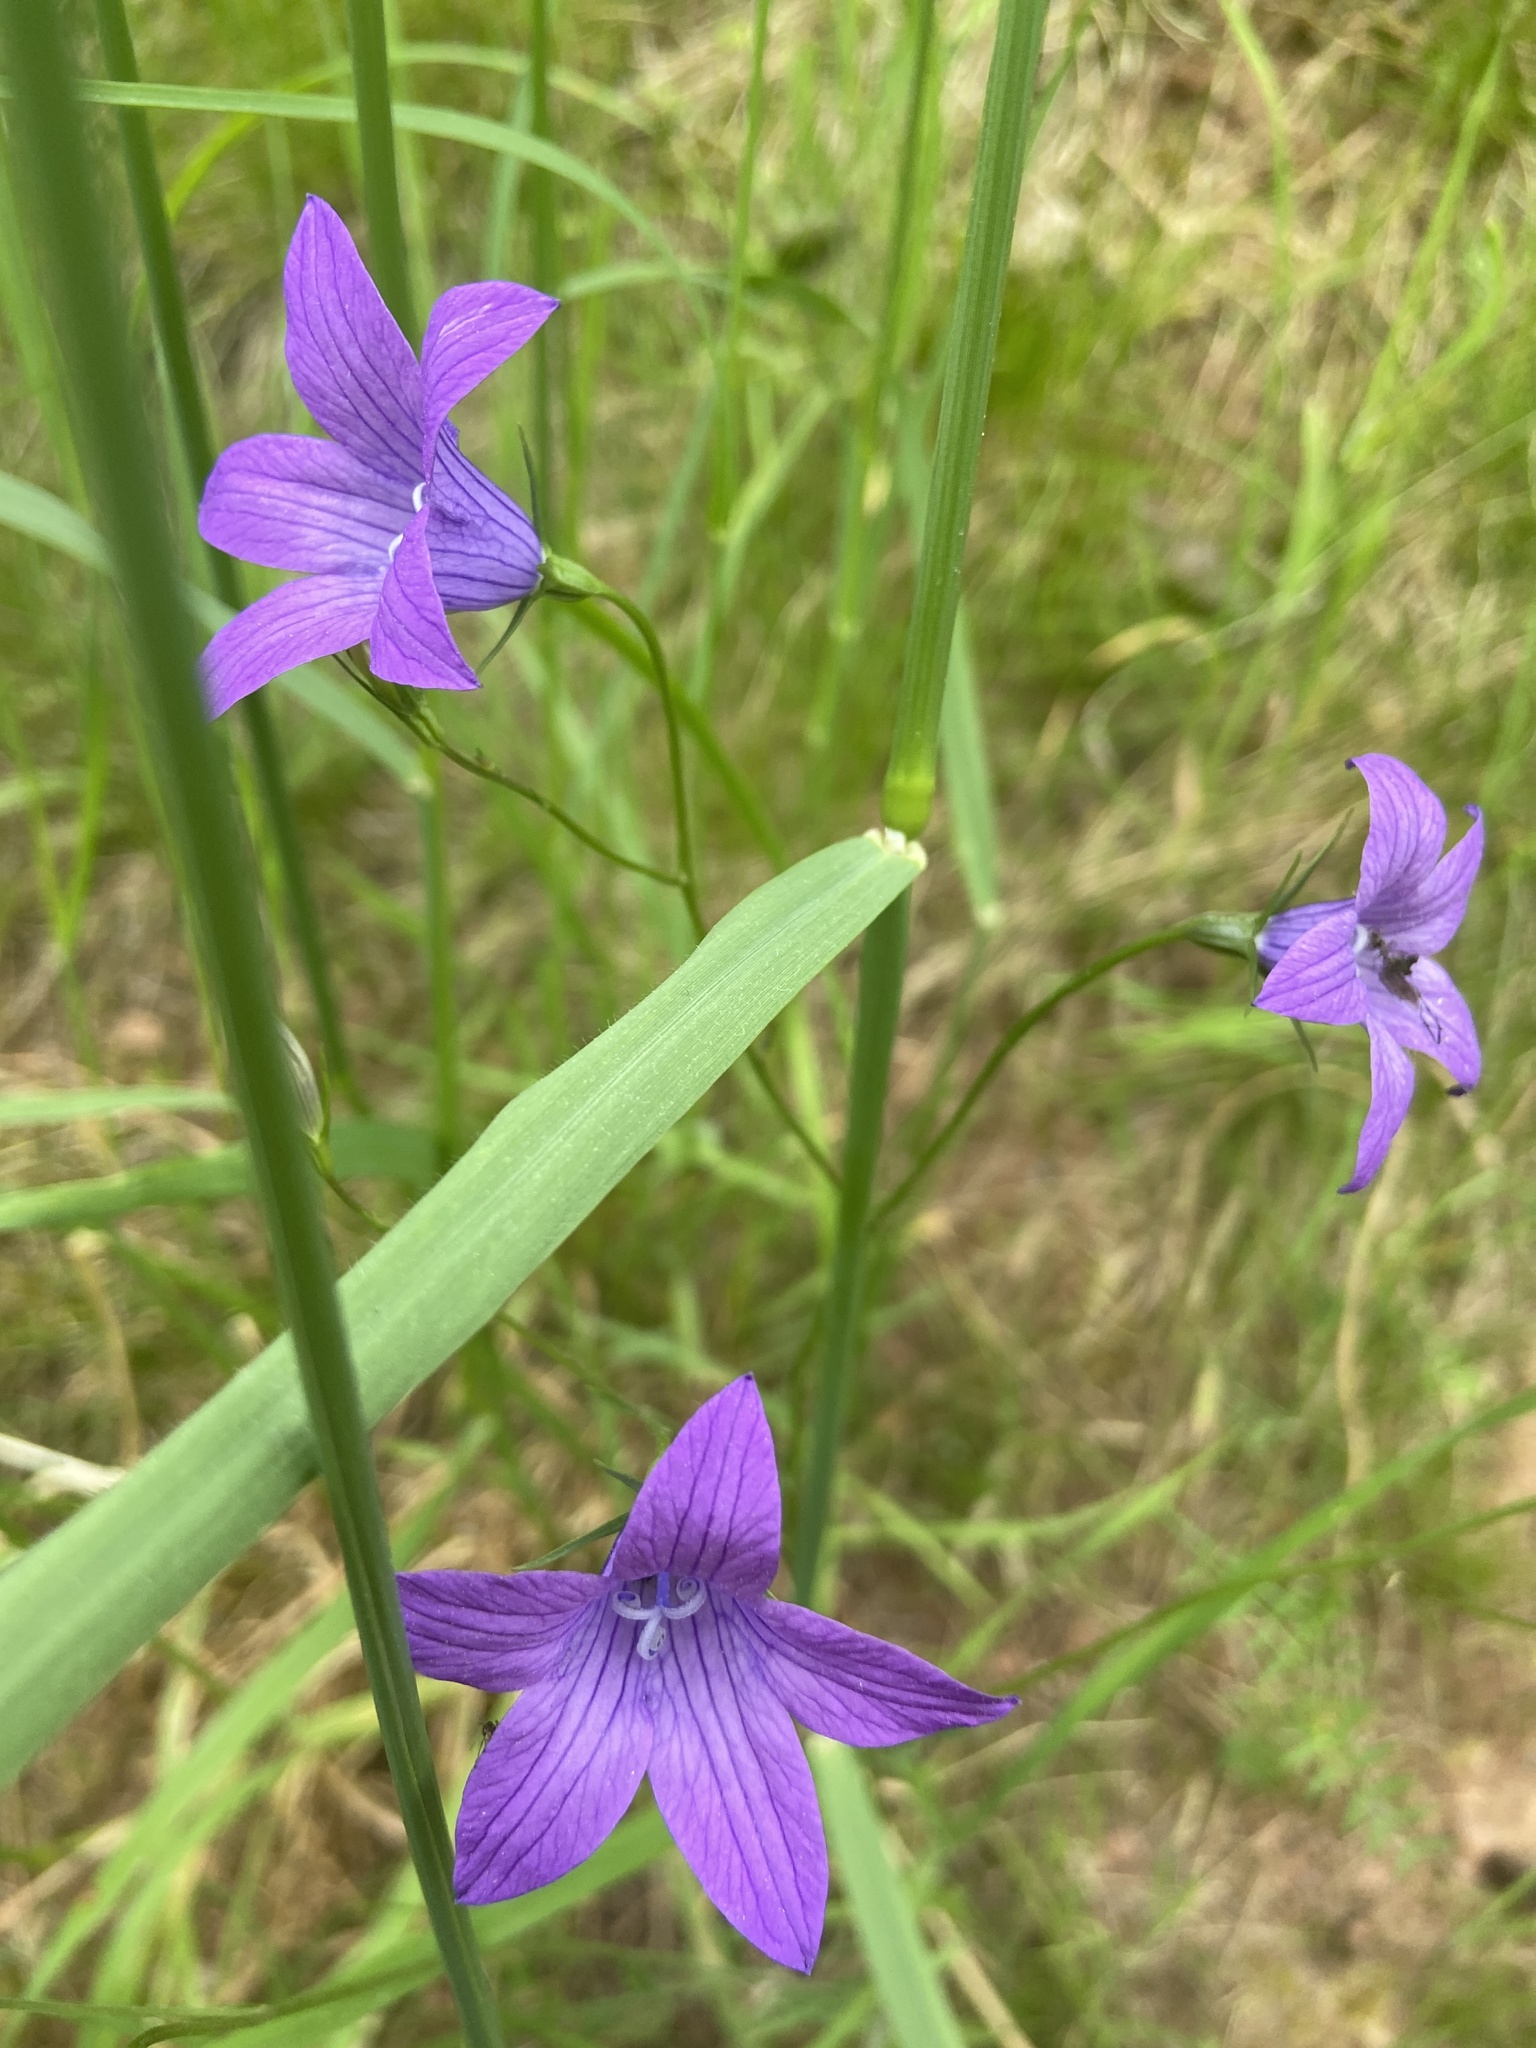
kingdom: Plantae
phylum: Tracheophyta
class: Magnoliopsida
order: Asterales
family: Campanulaceae
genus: Campanula
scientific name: Campanula patula
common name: Spreading bellflower
